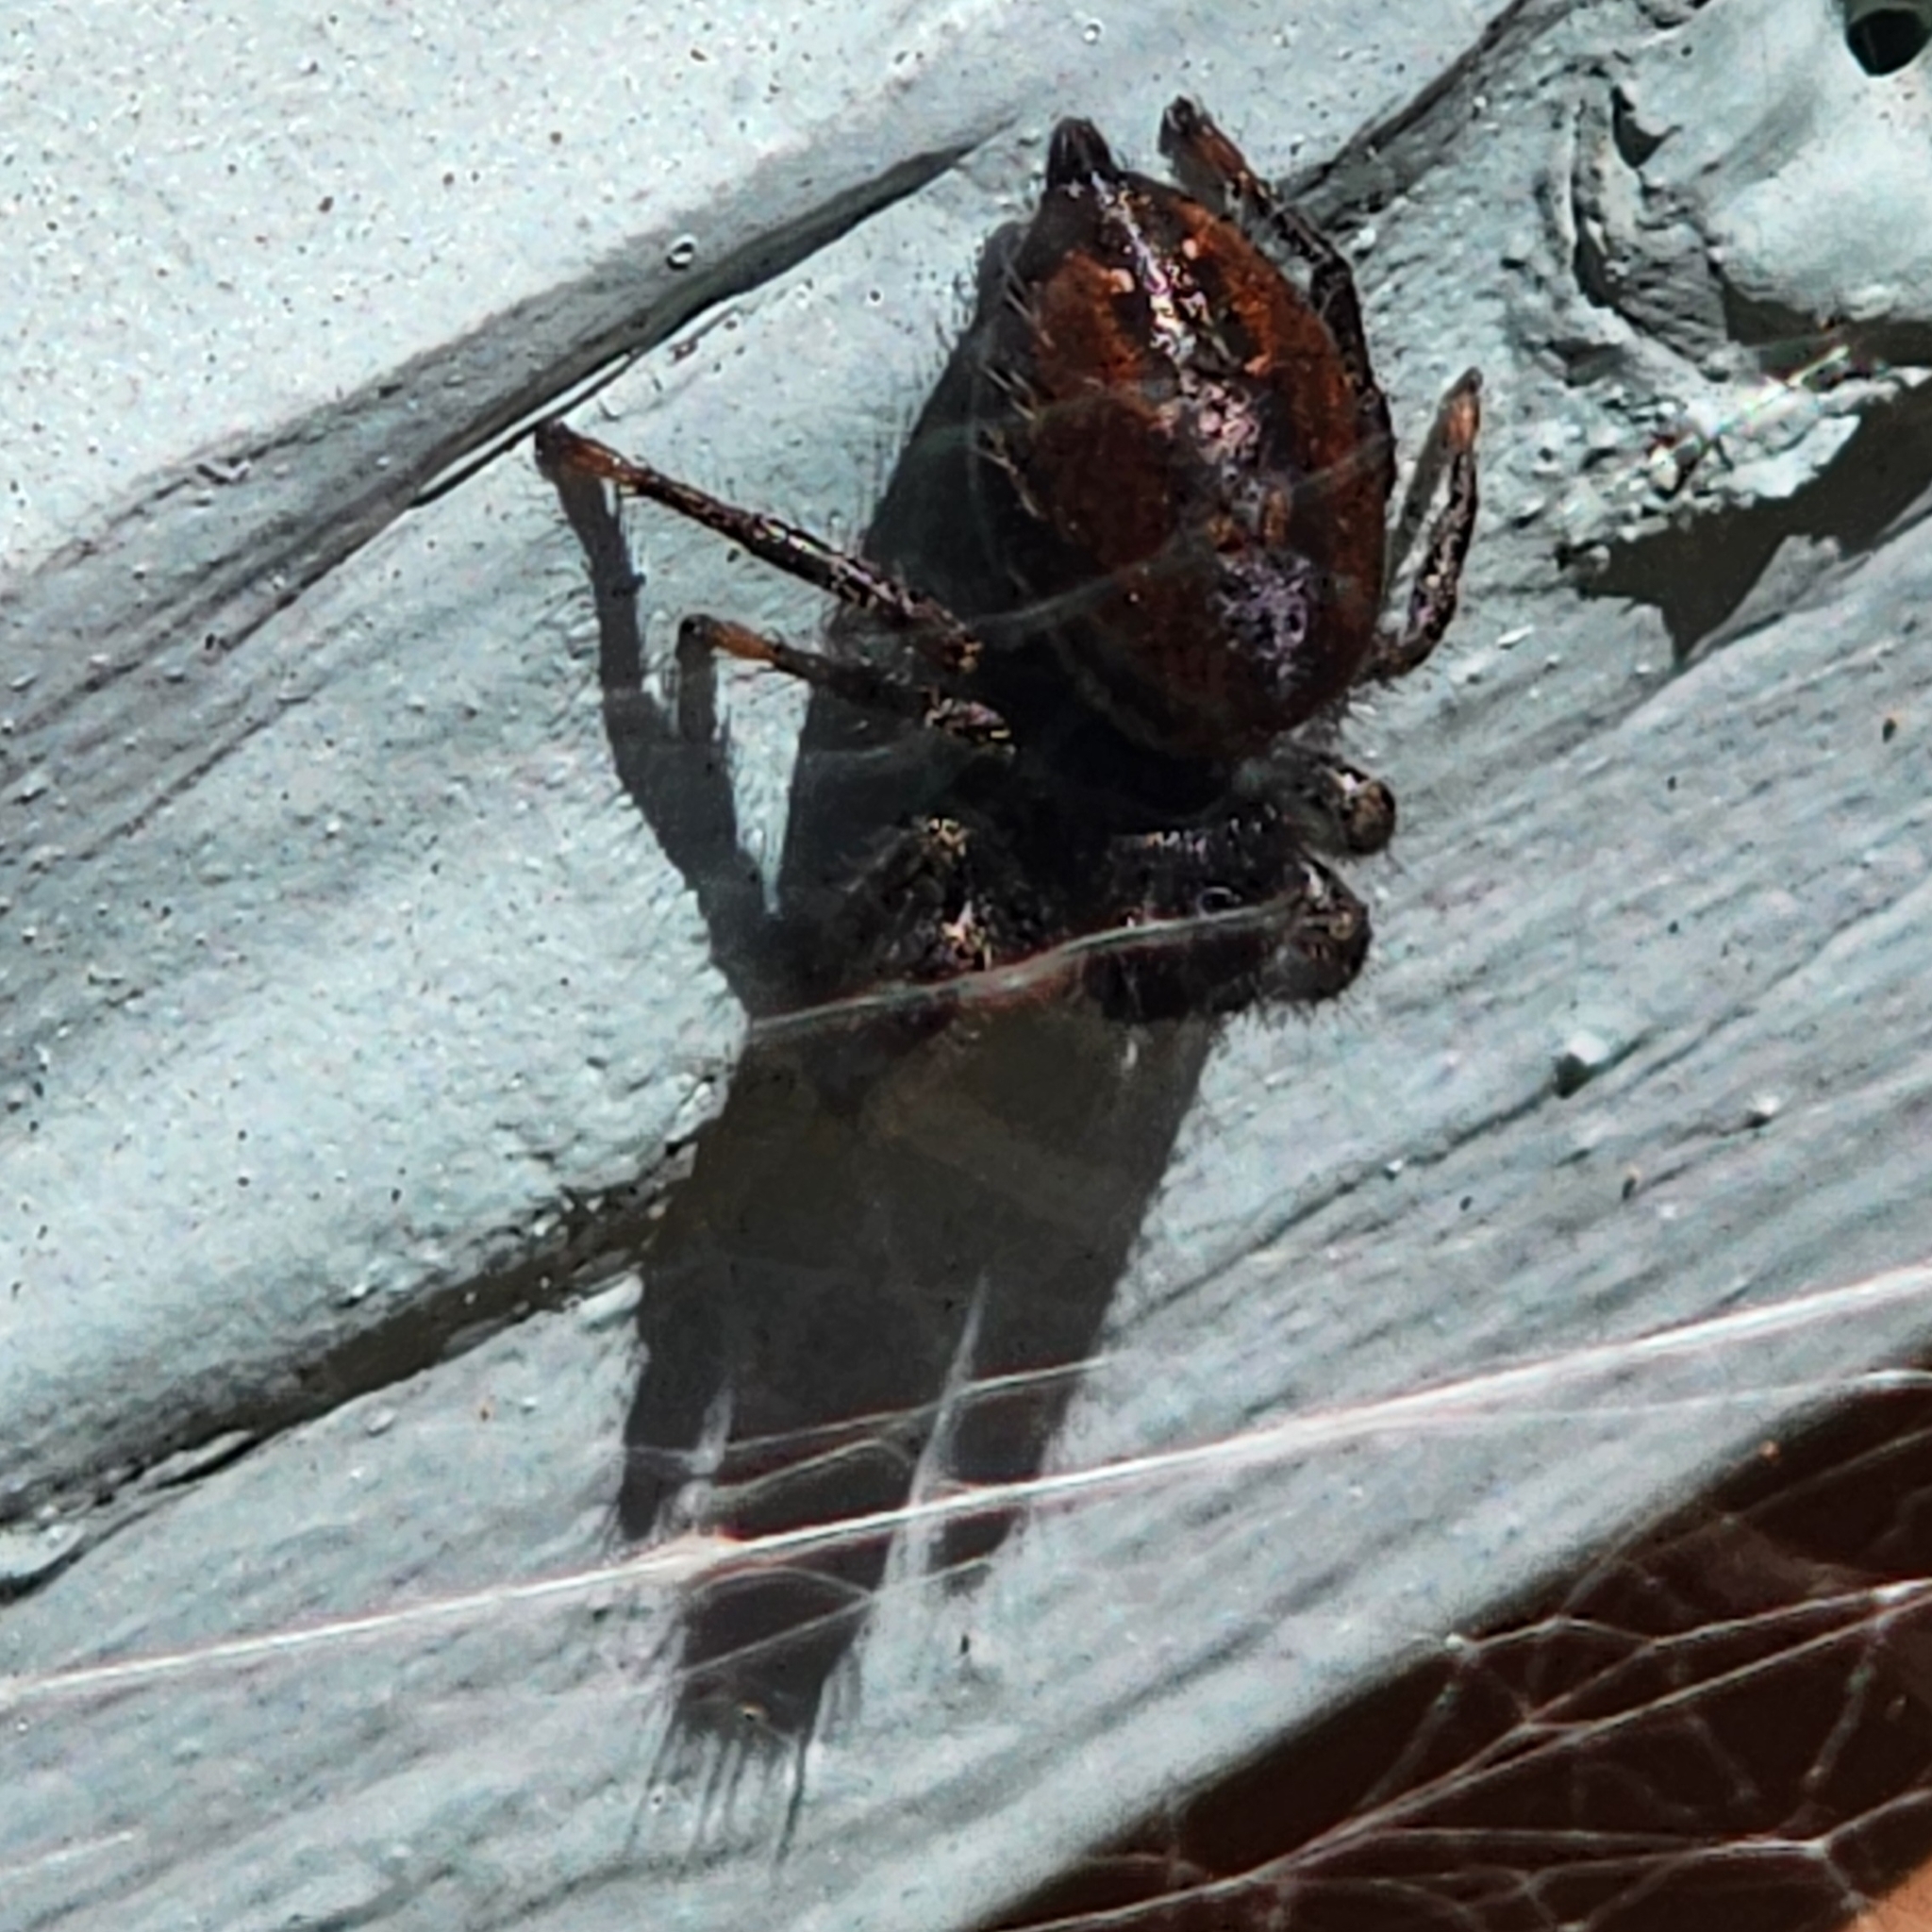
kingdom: Animalia
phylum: Arthropoda
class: Arachnida
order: Araneae
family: Salticidae
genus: Phidippus
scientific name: Phidippus johnsoni
